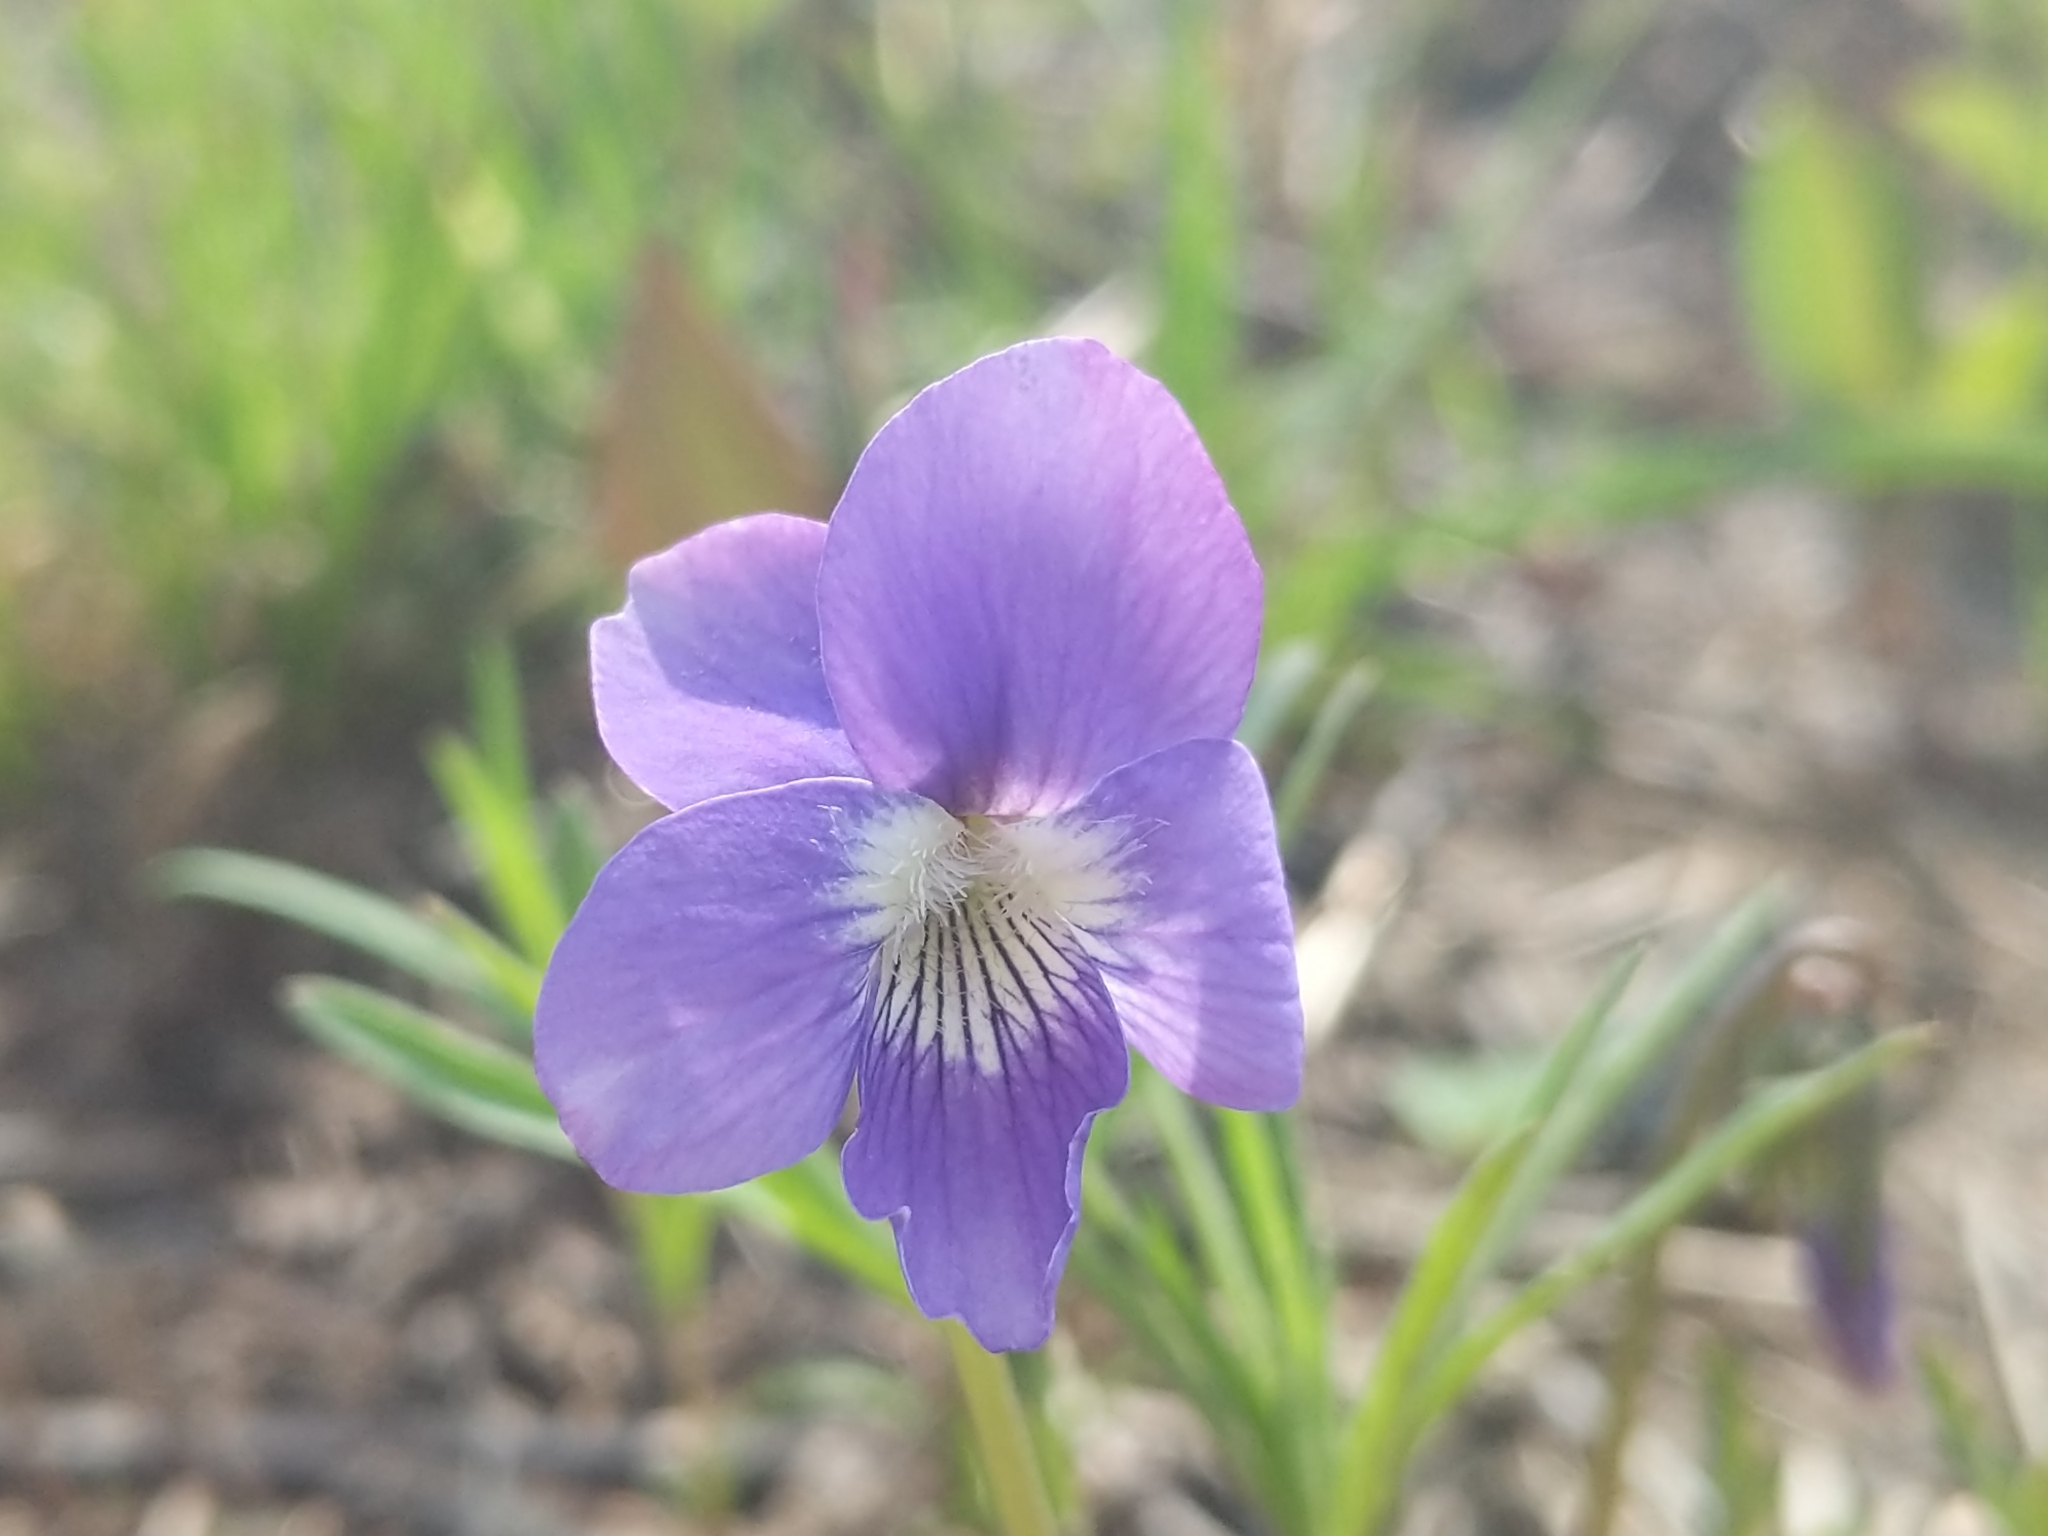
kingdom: Plantae
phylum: Tracheophyta
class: Magnoliopsida
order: Malpighiales
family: Violaceae
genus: Viola
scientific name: Viola pedatifida
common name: Prairie violet
